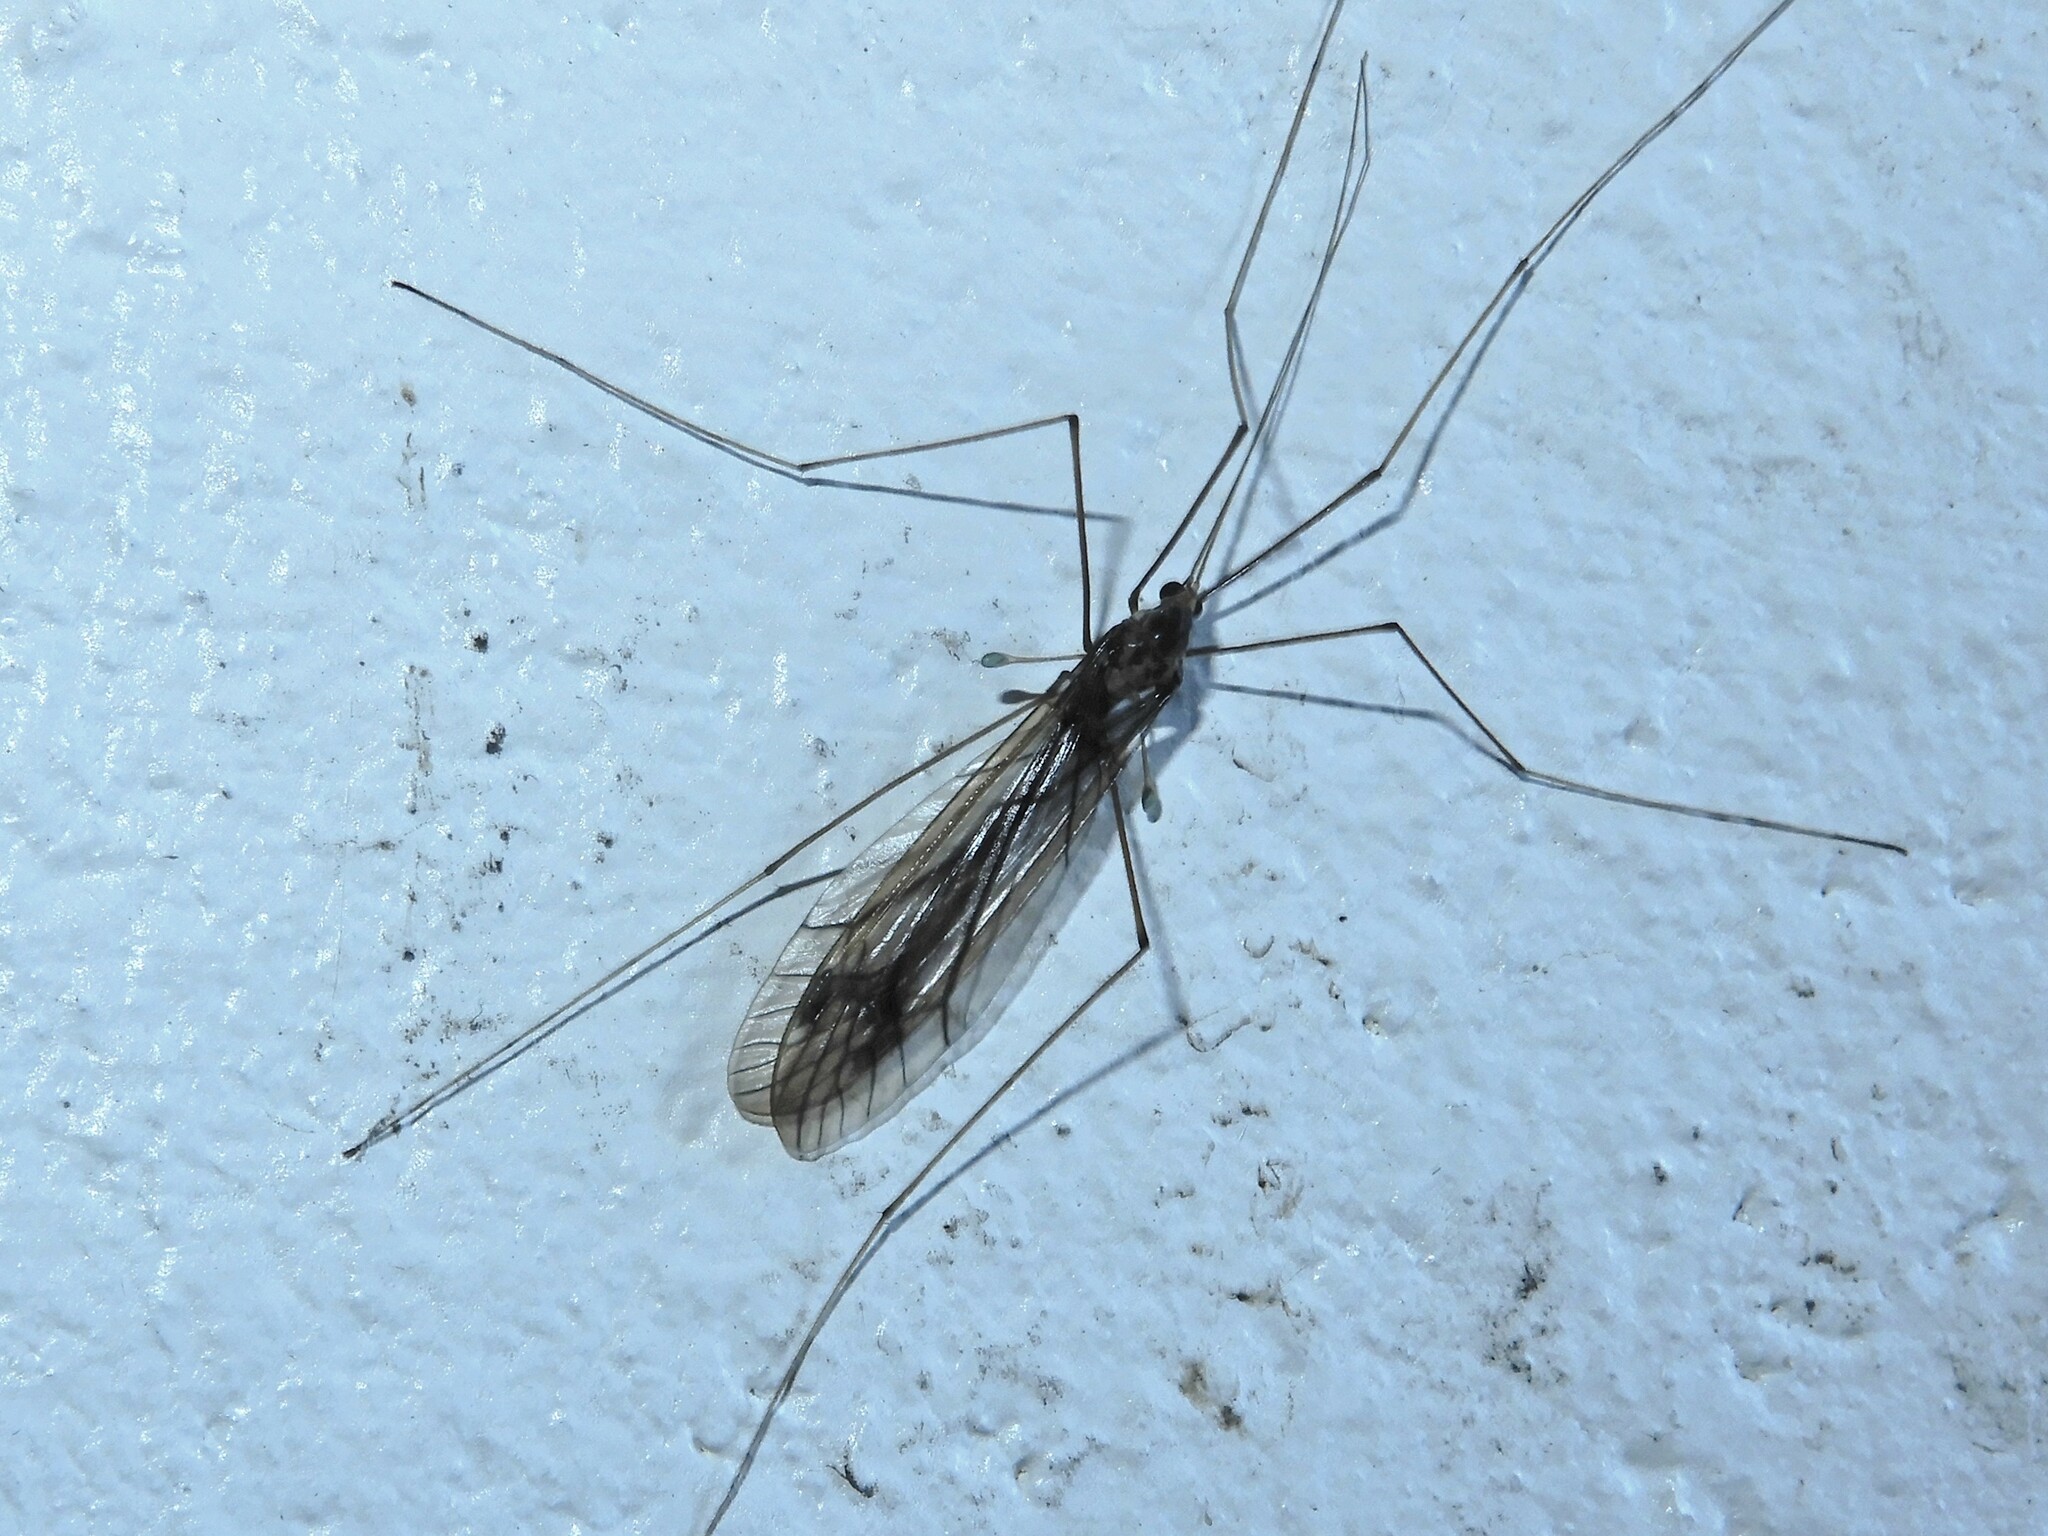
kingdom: Animalia
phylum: Arthropoda
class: Insecta
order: Diptera
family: Tipulidae
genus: Leptotarsus
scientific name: Leptotarsus pallidus
